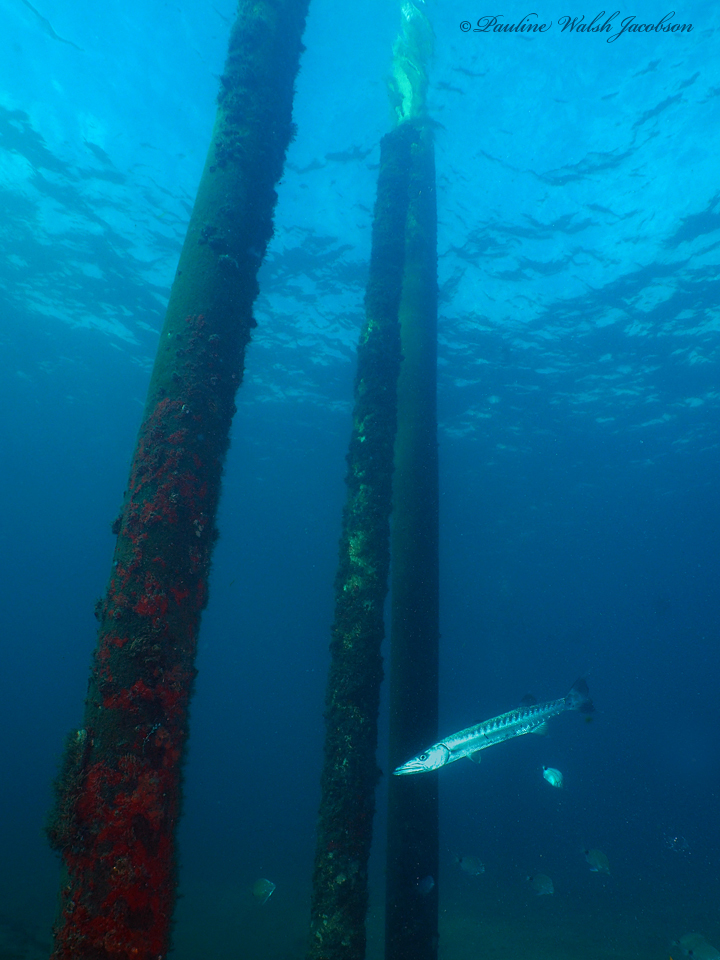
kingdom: Animalia
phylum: Chordata
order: Perciformes
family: Sphyraenidae
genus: Sphyraena
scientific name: Sphyraena barracuda
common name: Great barracuda
